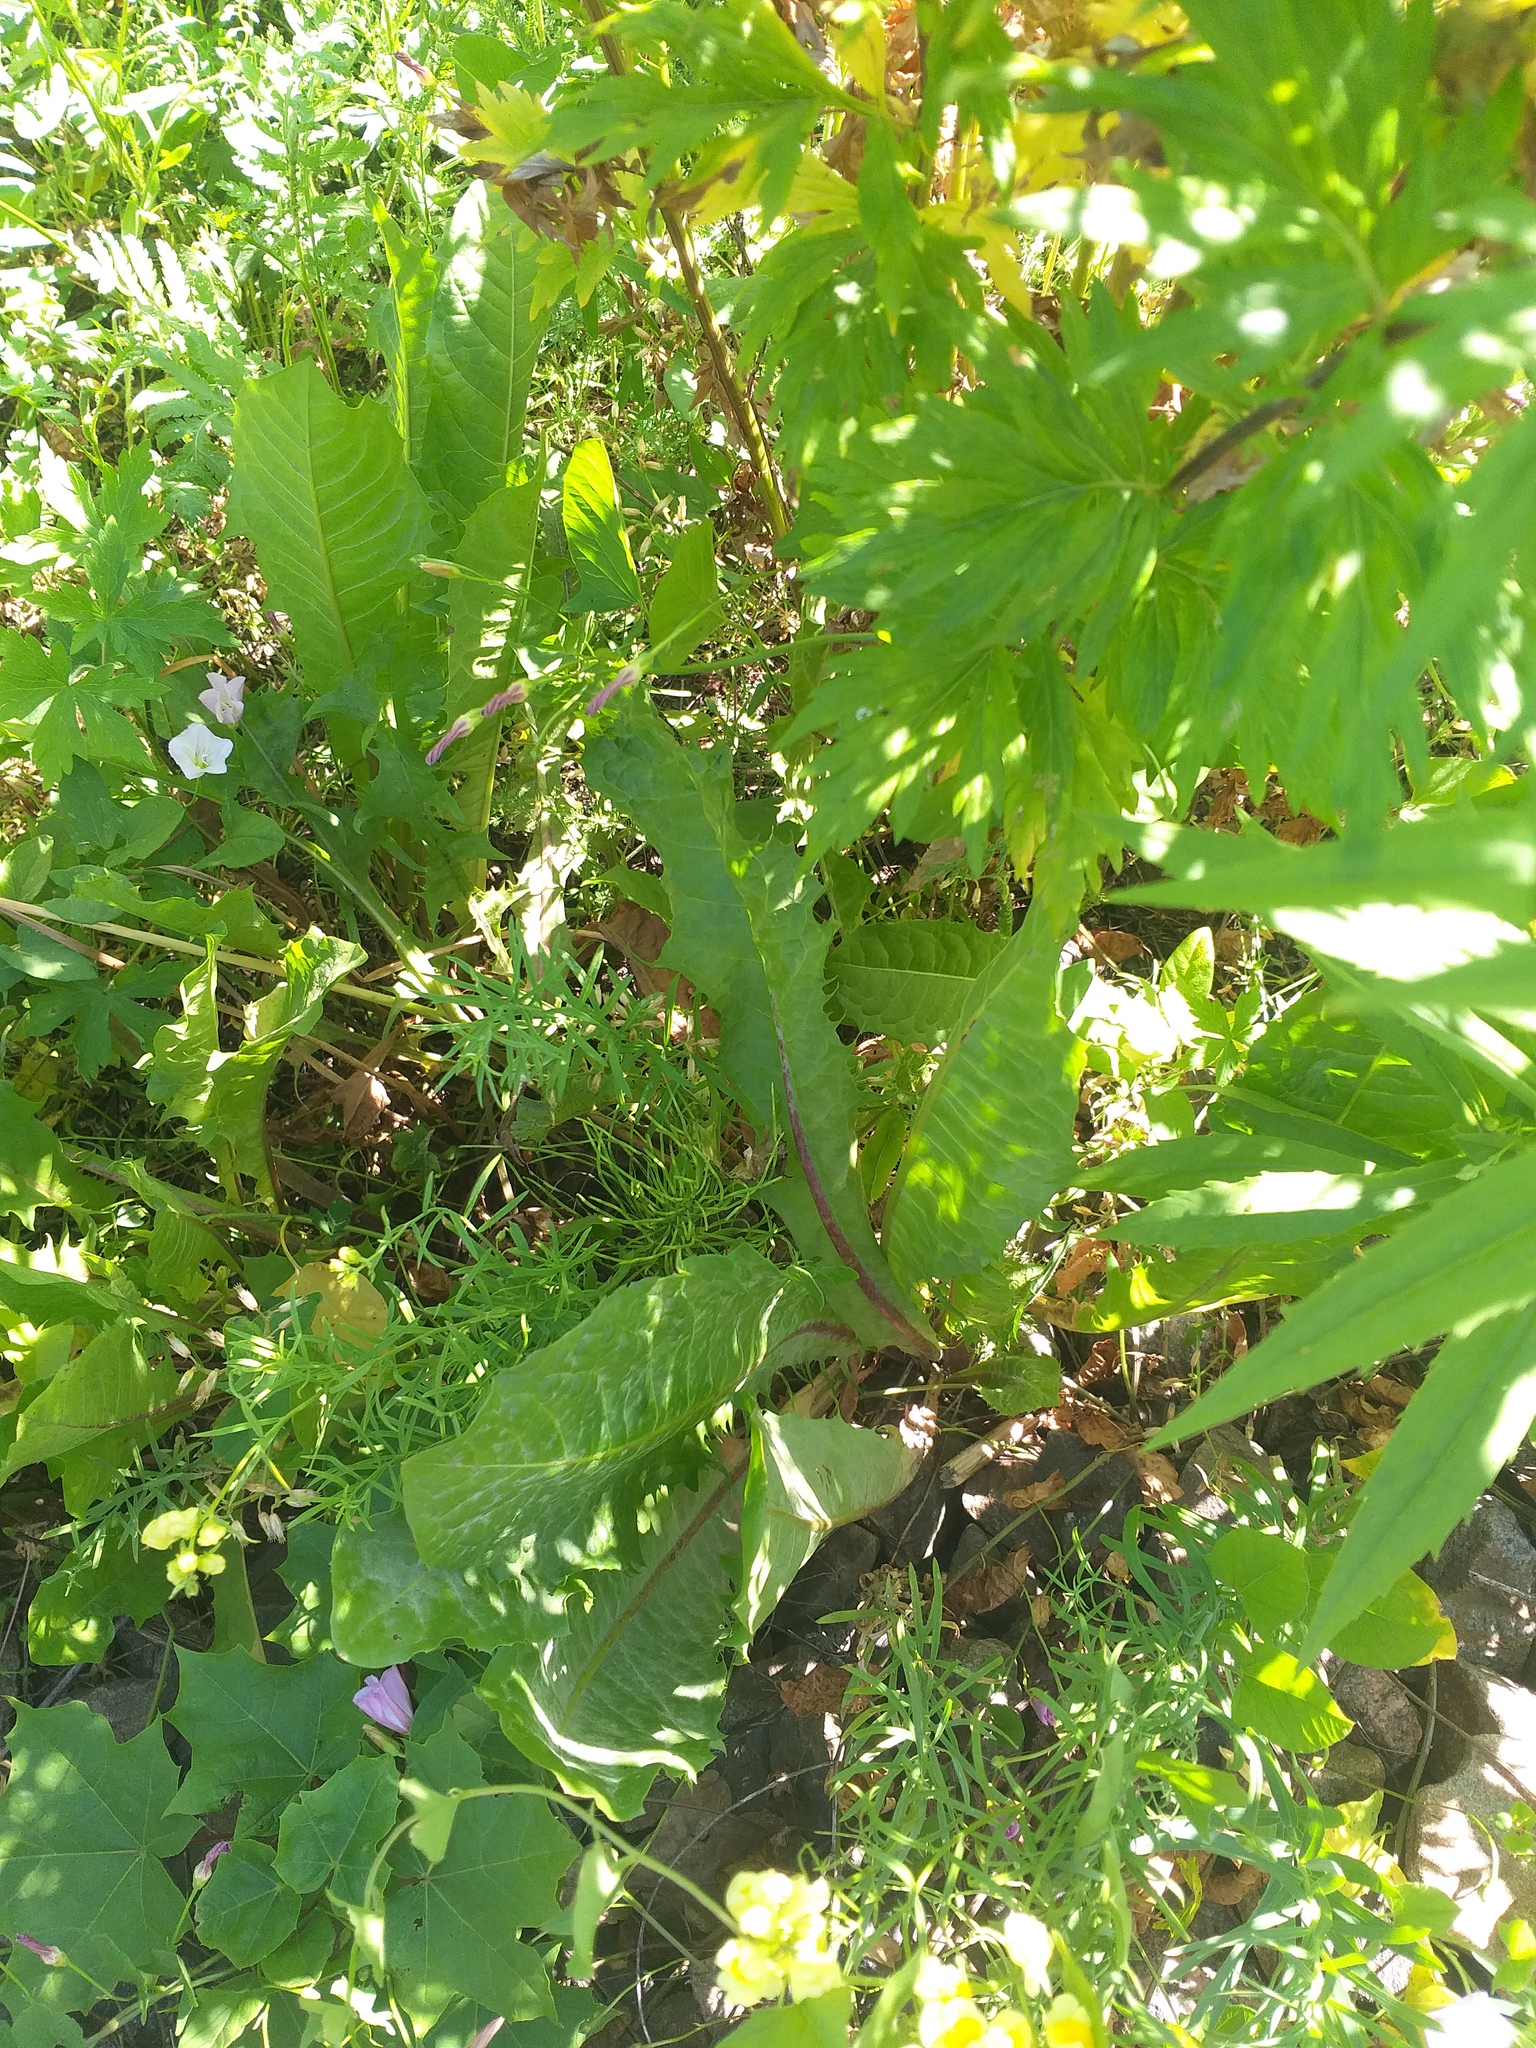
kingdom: Plantae
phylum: Tracheophyta
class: Magnoliopsida
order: Asterales
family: Asteraceae
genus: Taraxacum
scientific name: Taraxacum officinale
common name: Common dandelion
